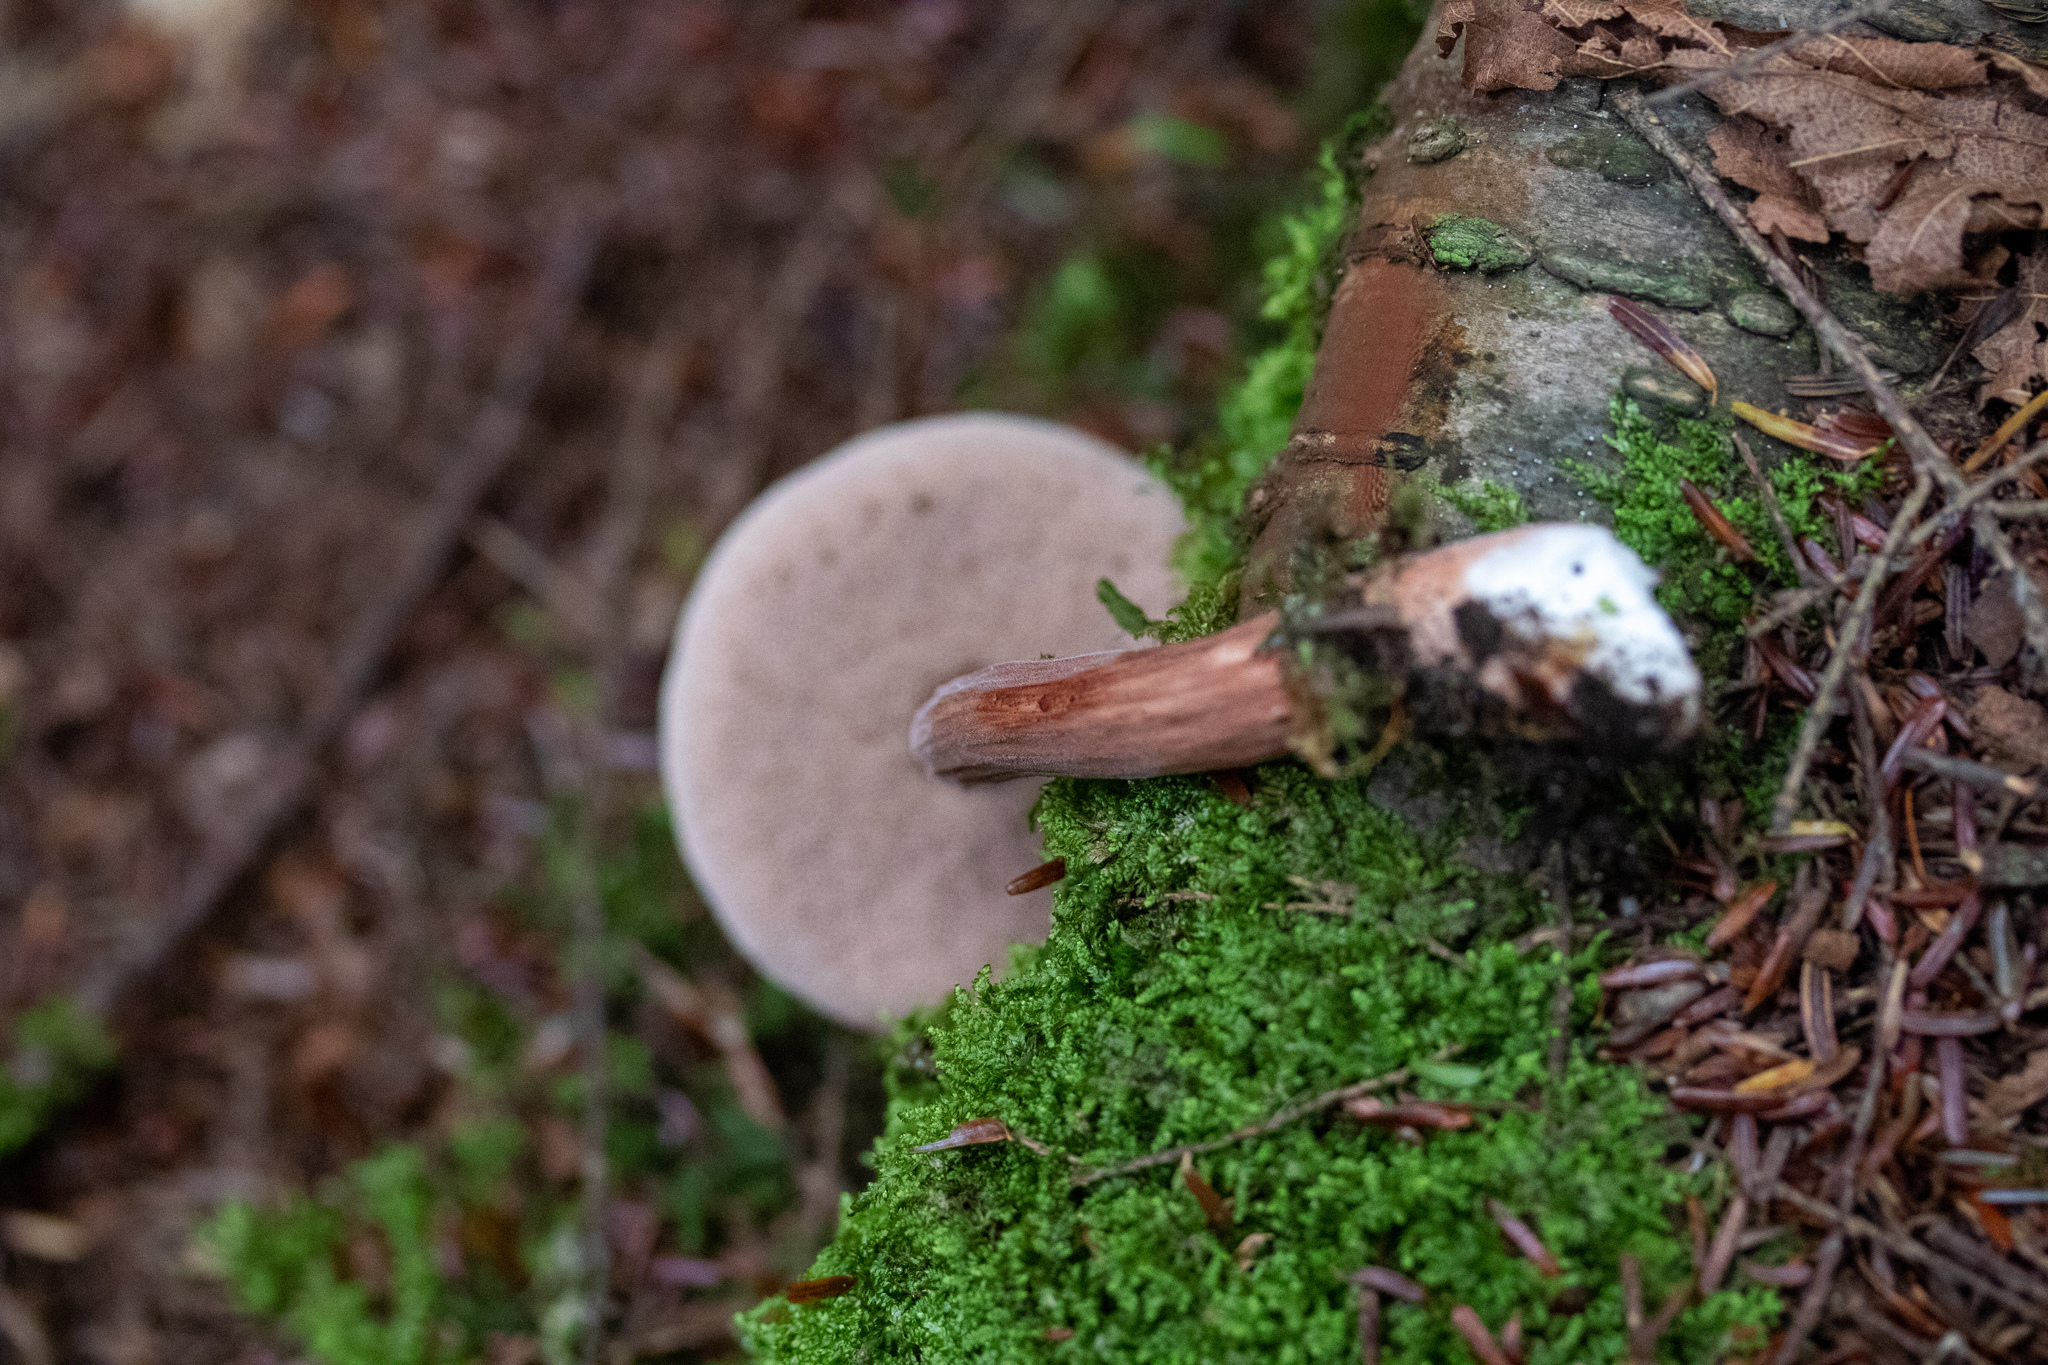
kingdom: Fungi
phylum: Basidiomycota
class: Agaricomycetes
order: Boletales
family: Boletaceae
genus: Austroboletus
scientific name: Austroboletus gracilis
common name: Graceful bolete
